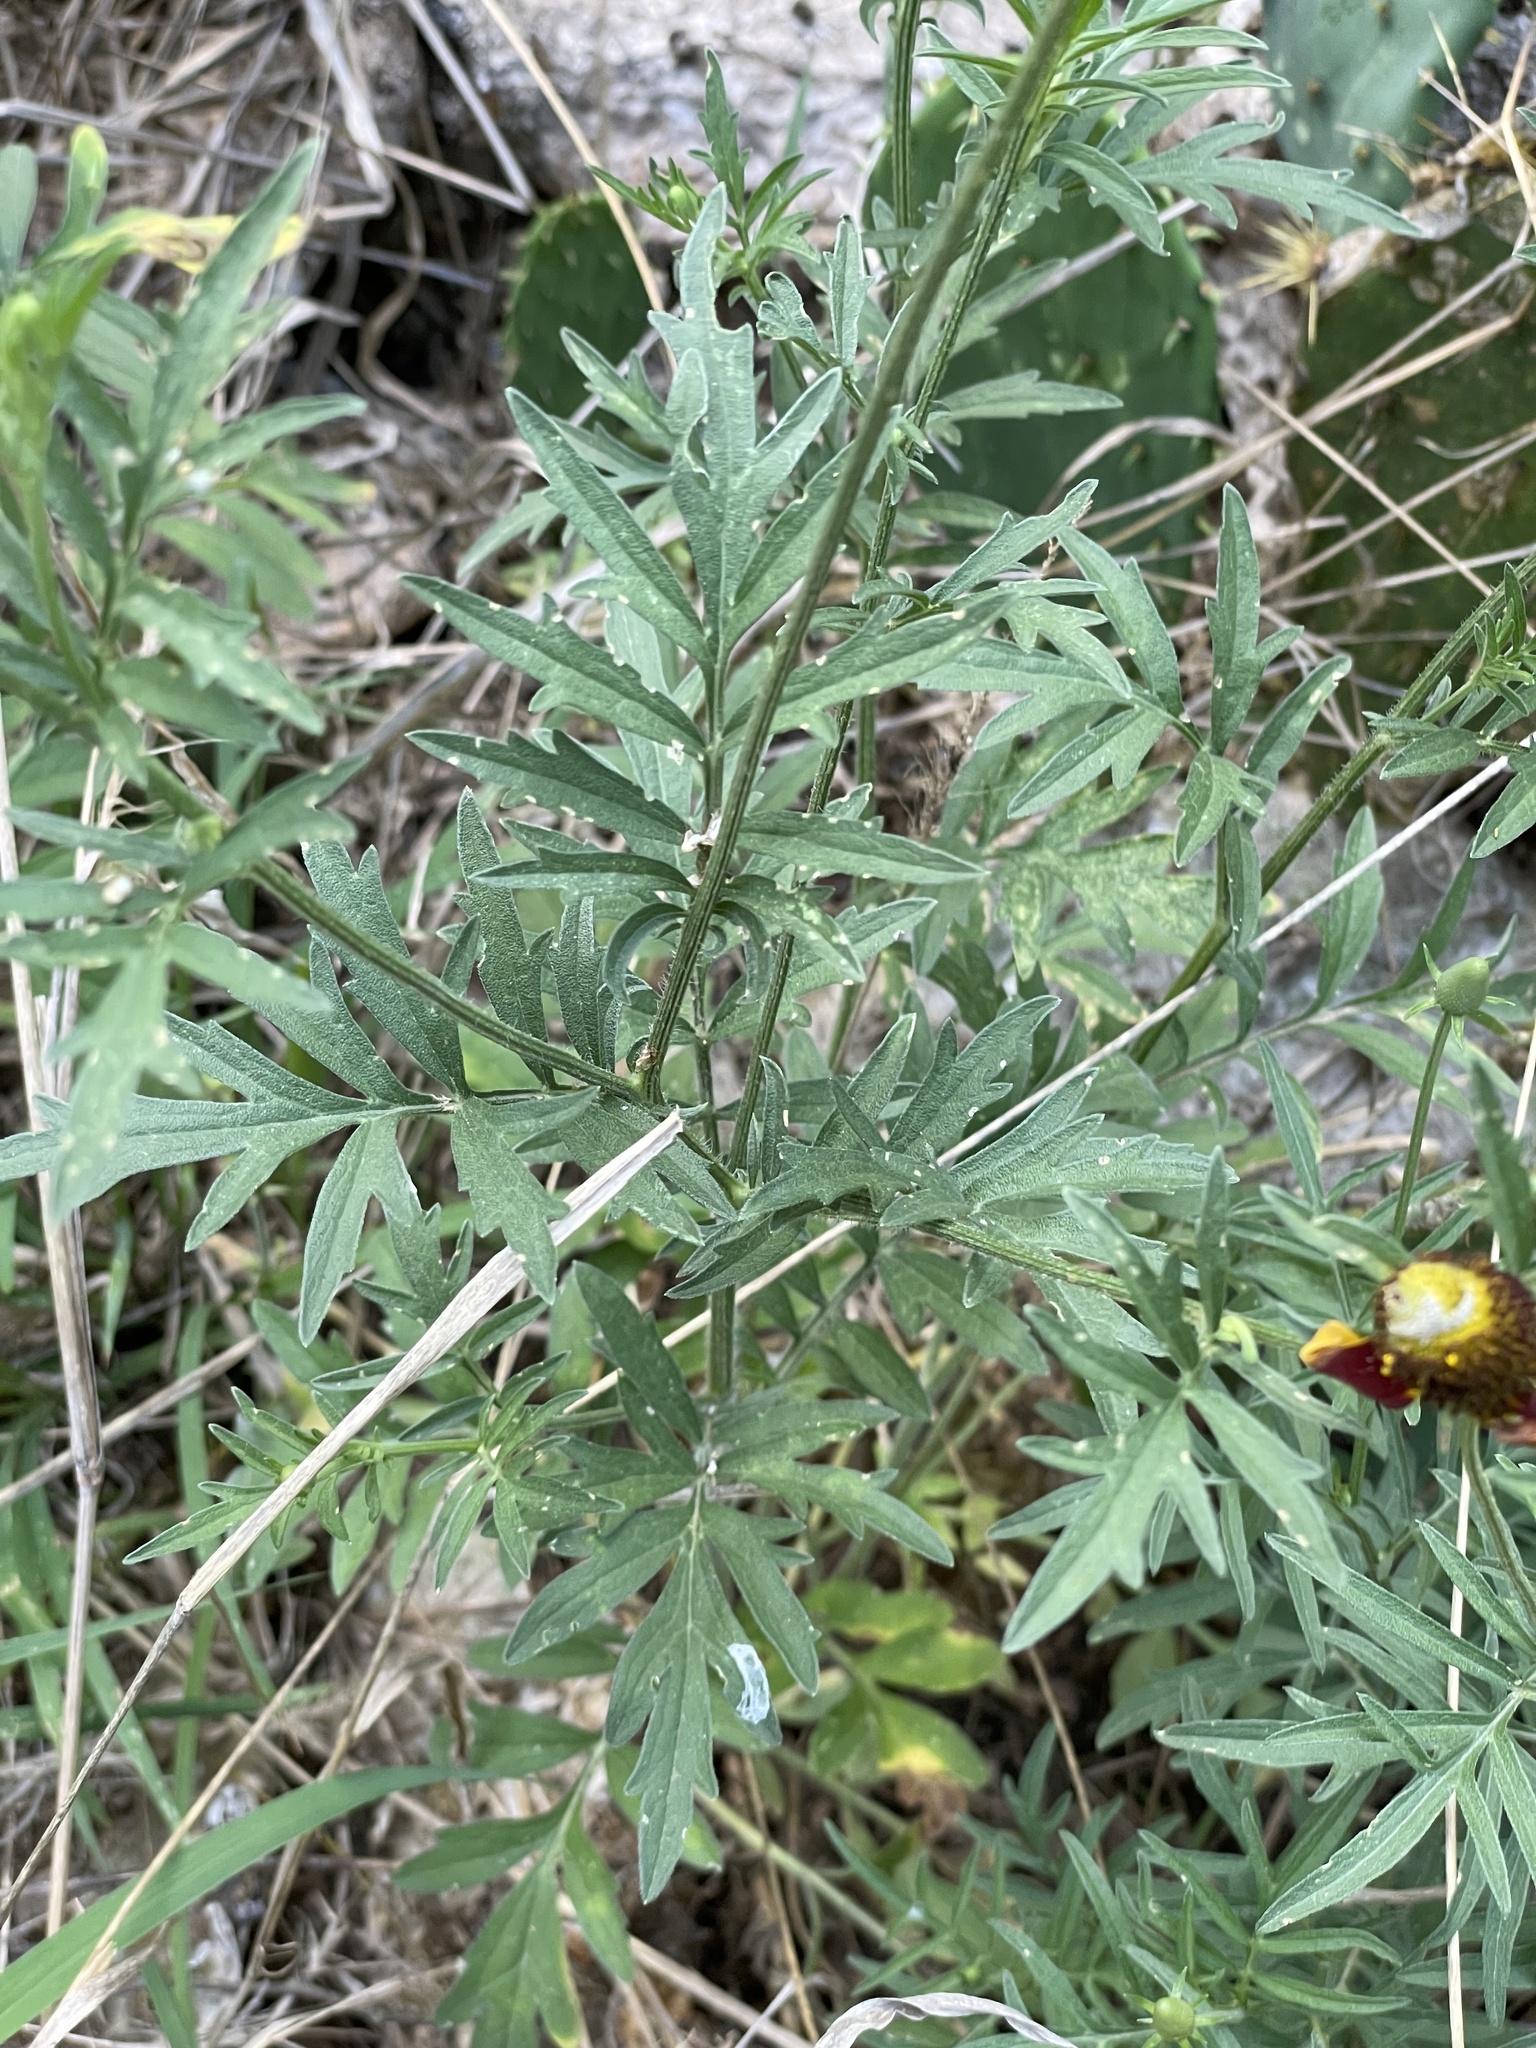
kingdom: Plantae
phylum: Tracheophyta
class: Magnoliopsida
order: Asterales
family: Asteraceae
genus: Ratibida
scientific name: Ratibida columnifera
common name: Prairie coneflower
